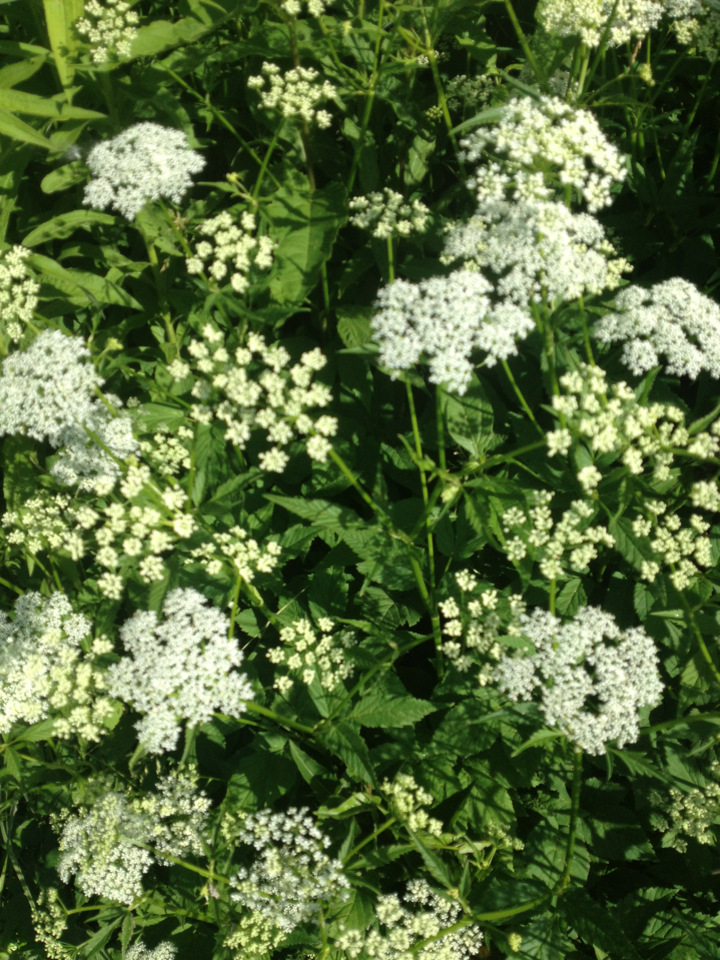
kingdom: Plantae
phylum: Tracheophyta
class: Magnoliopsida
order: Apiales
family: Apiaceae
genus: Aegopodium
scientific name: Aegopodium podagraria
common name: Ground-elder
